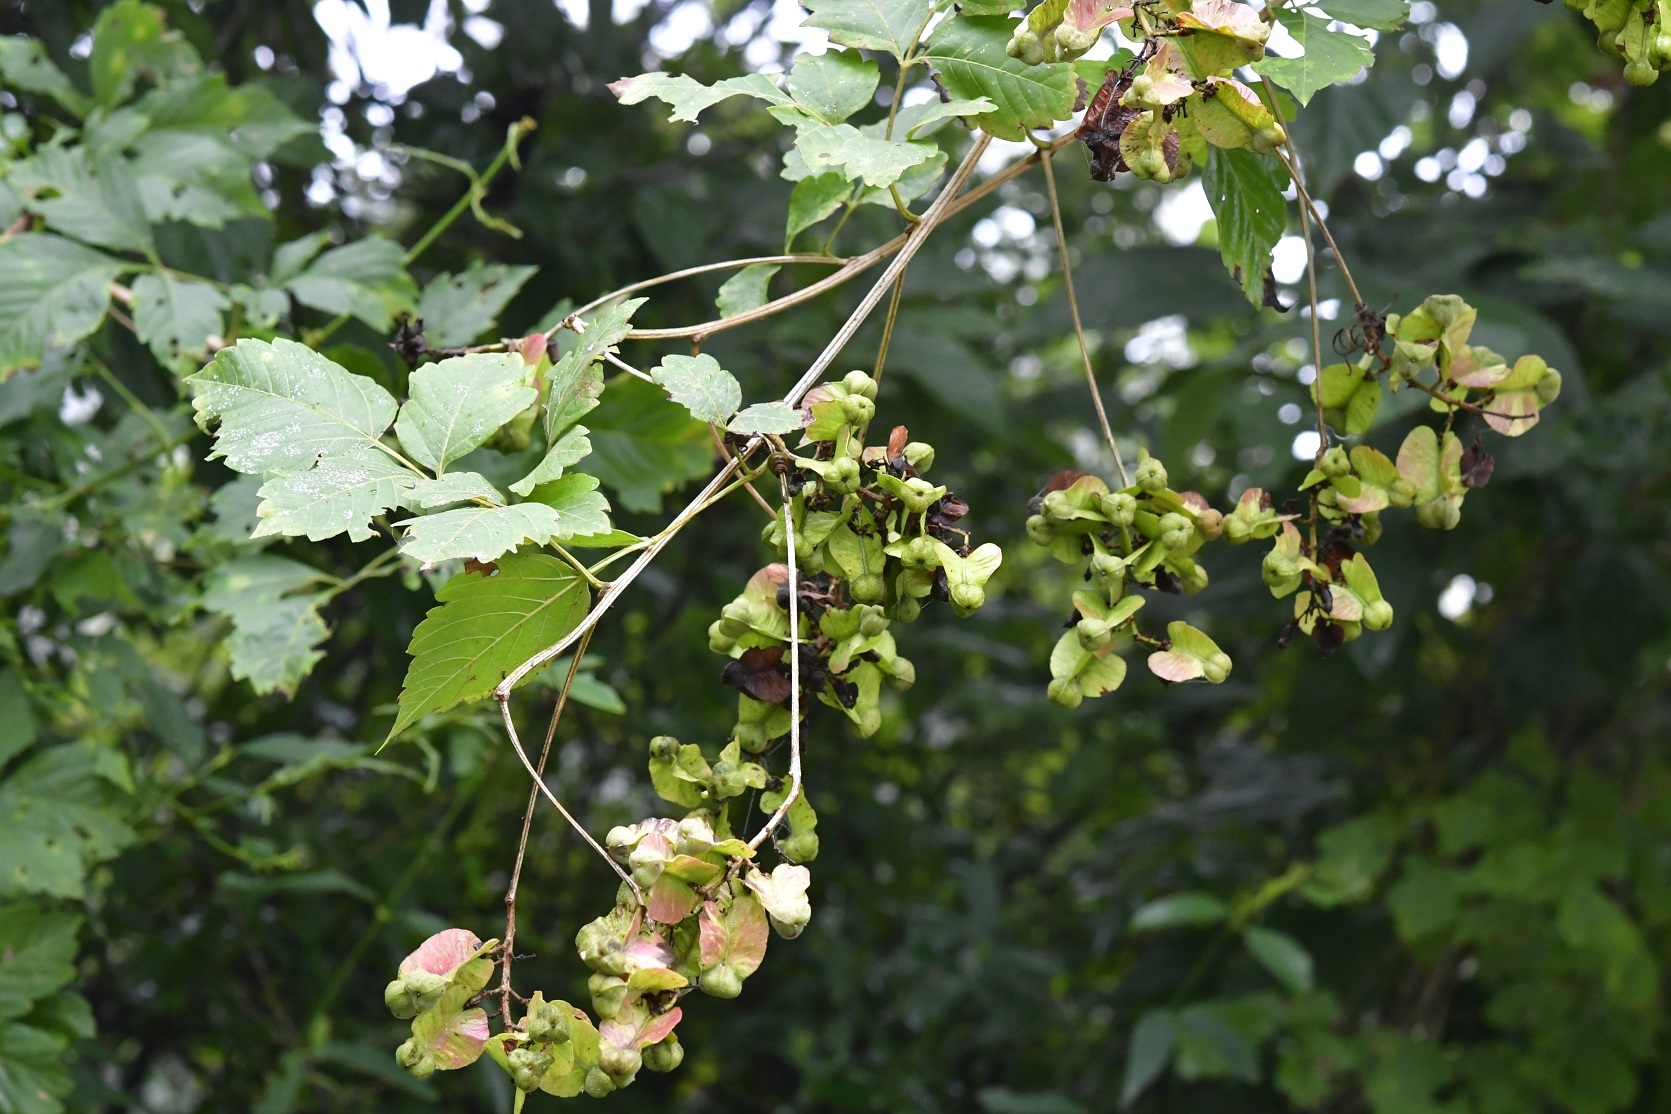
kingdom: Plantae
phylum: Tracheophyta
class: Magnoliopsida
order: Sapindales
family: Sapindaceae
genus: Serjania
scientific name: Serjania triquetra
